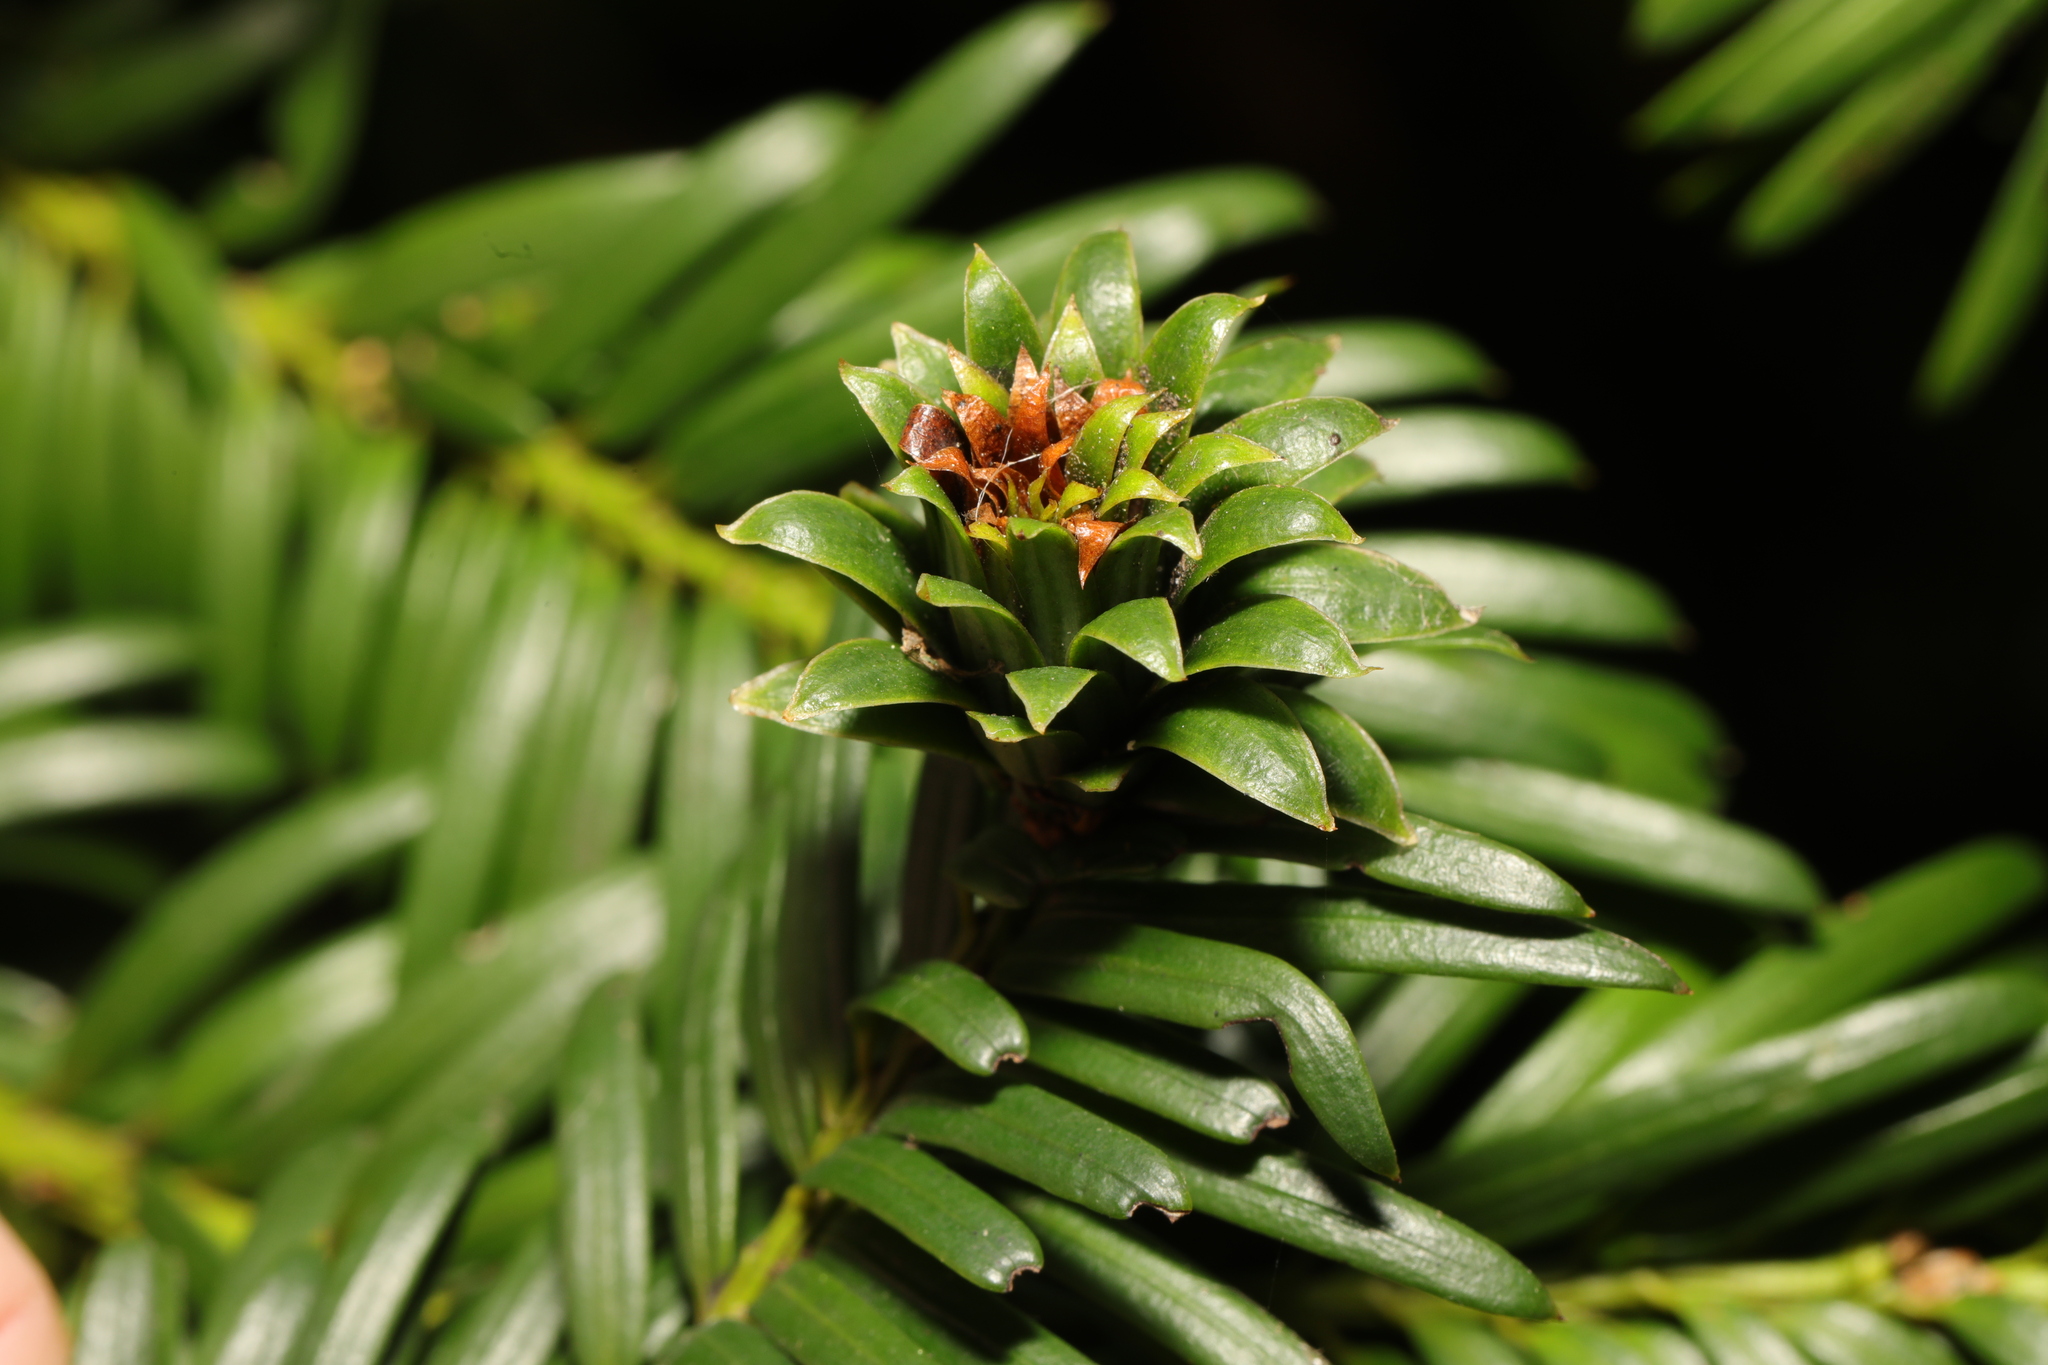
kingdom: Animalia
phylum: Arthropoda
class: Insecta
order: Diptera
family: Cecidomyiidae
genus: Taxomyia
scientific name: Taxomyia taxi
